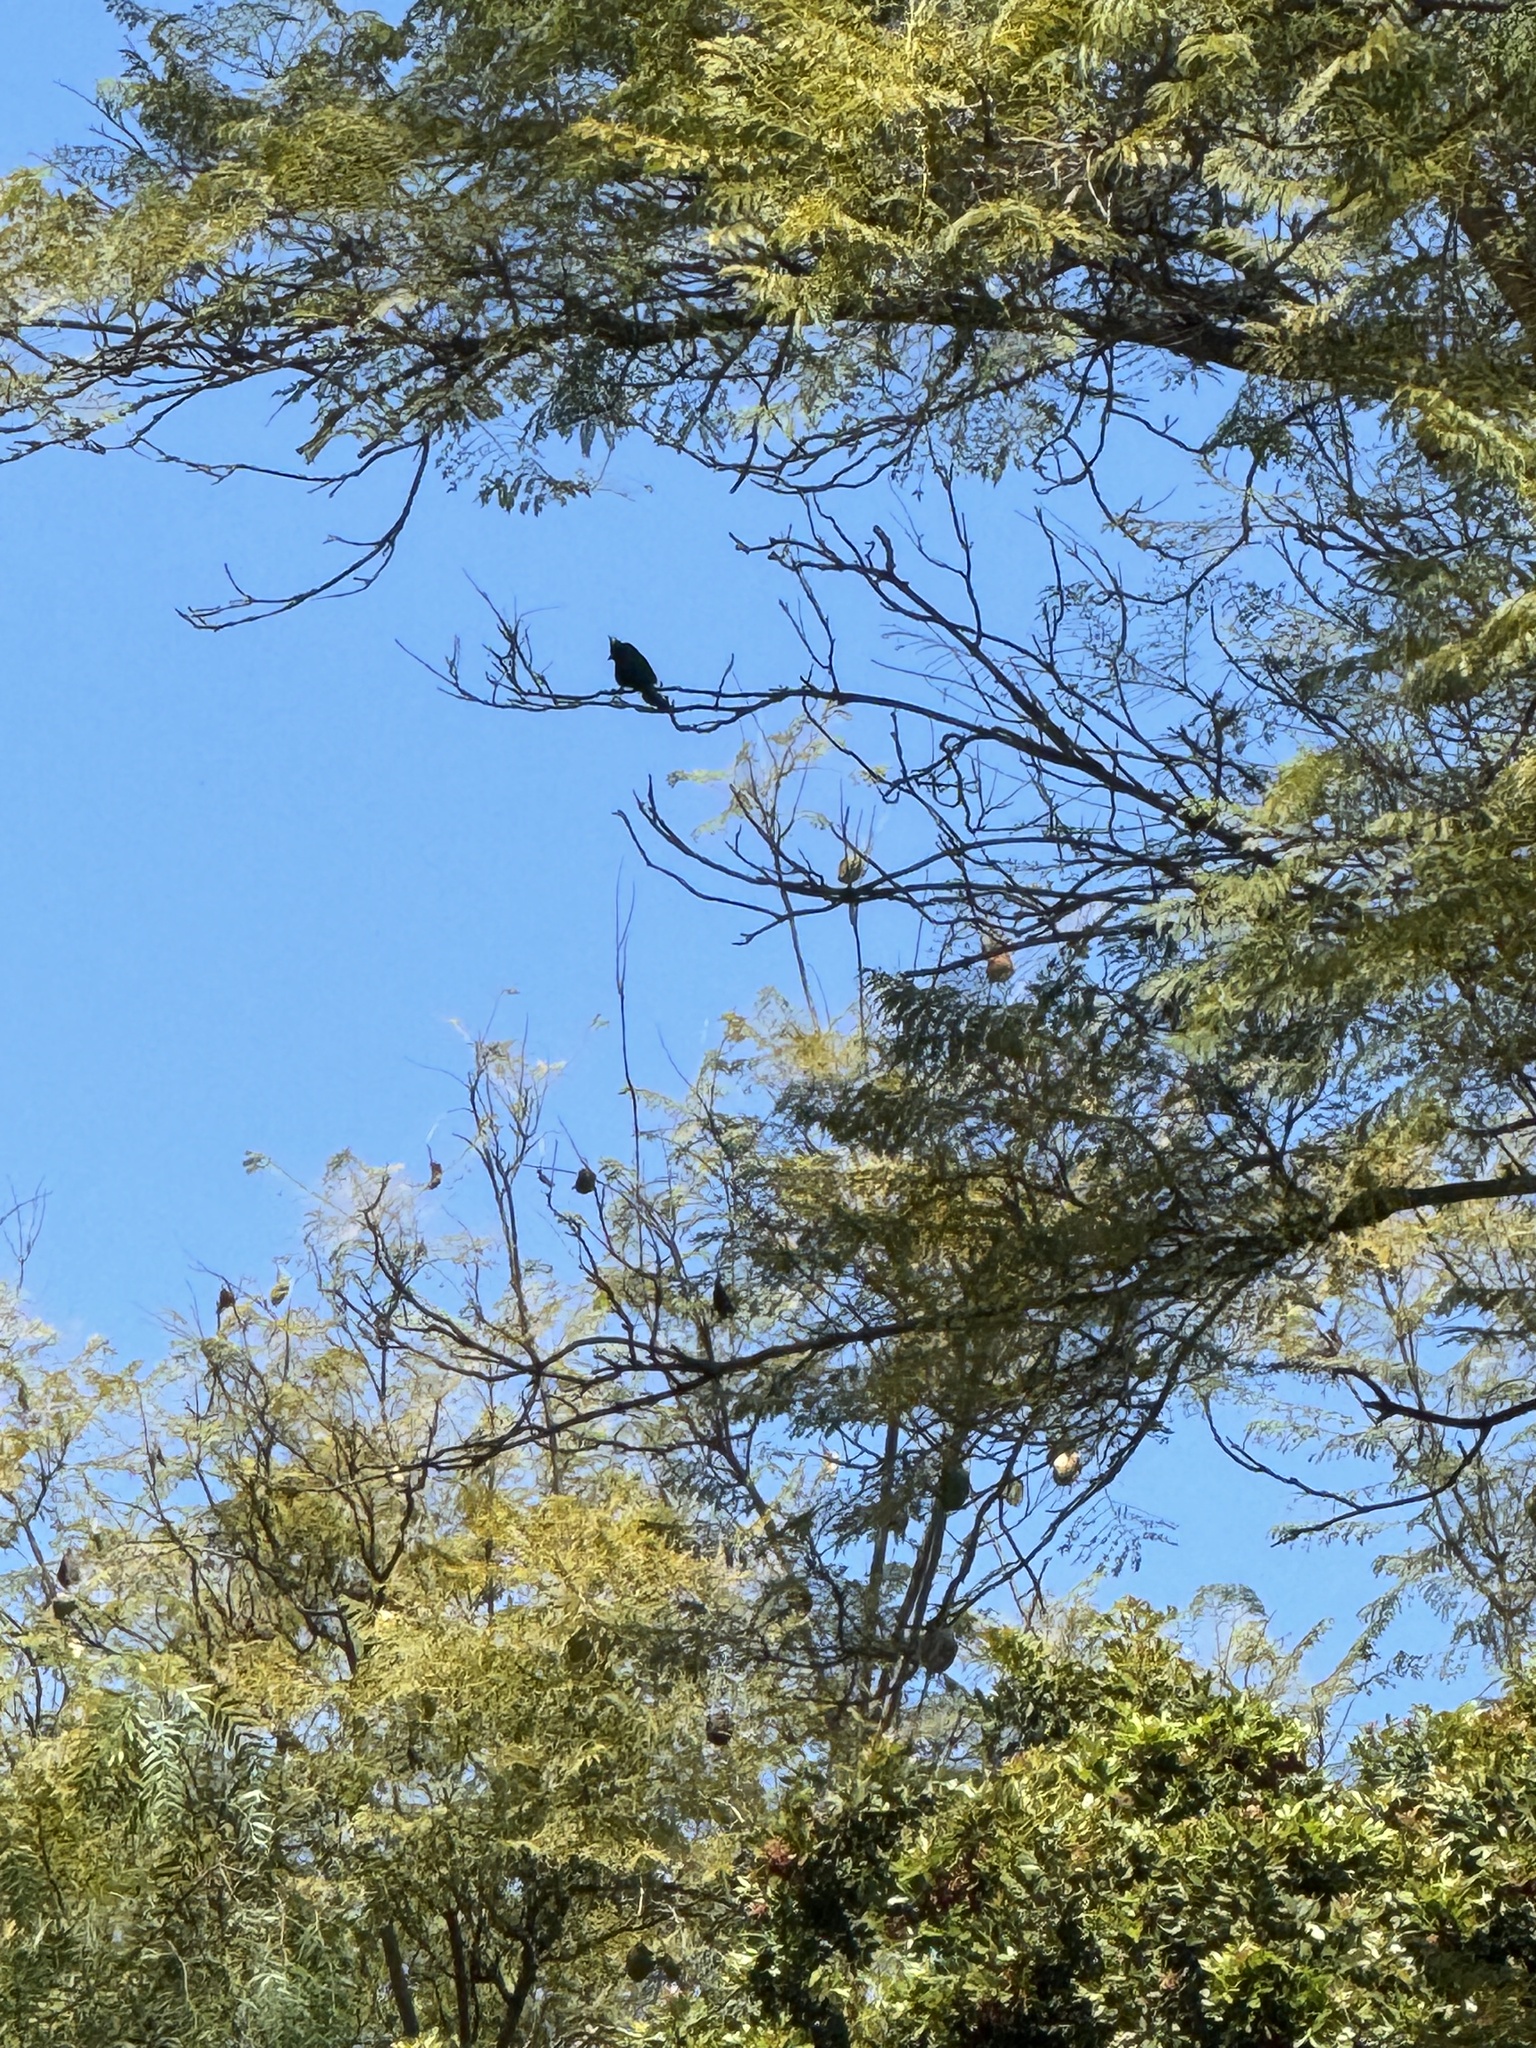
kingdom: Animalia
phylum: Chordata
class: Aves
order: Passeriformes
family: Ptilogonatidae
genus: Phainopepla
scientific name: Phainopepla nitens
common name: Phainopepla
